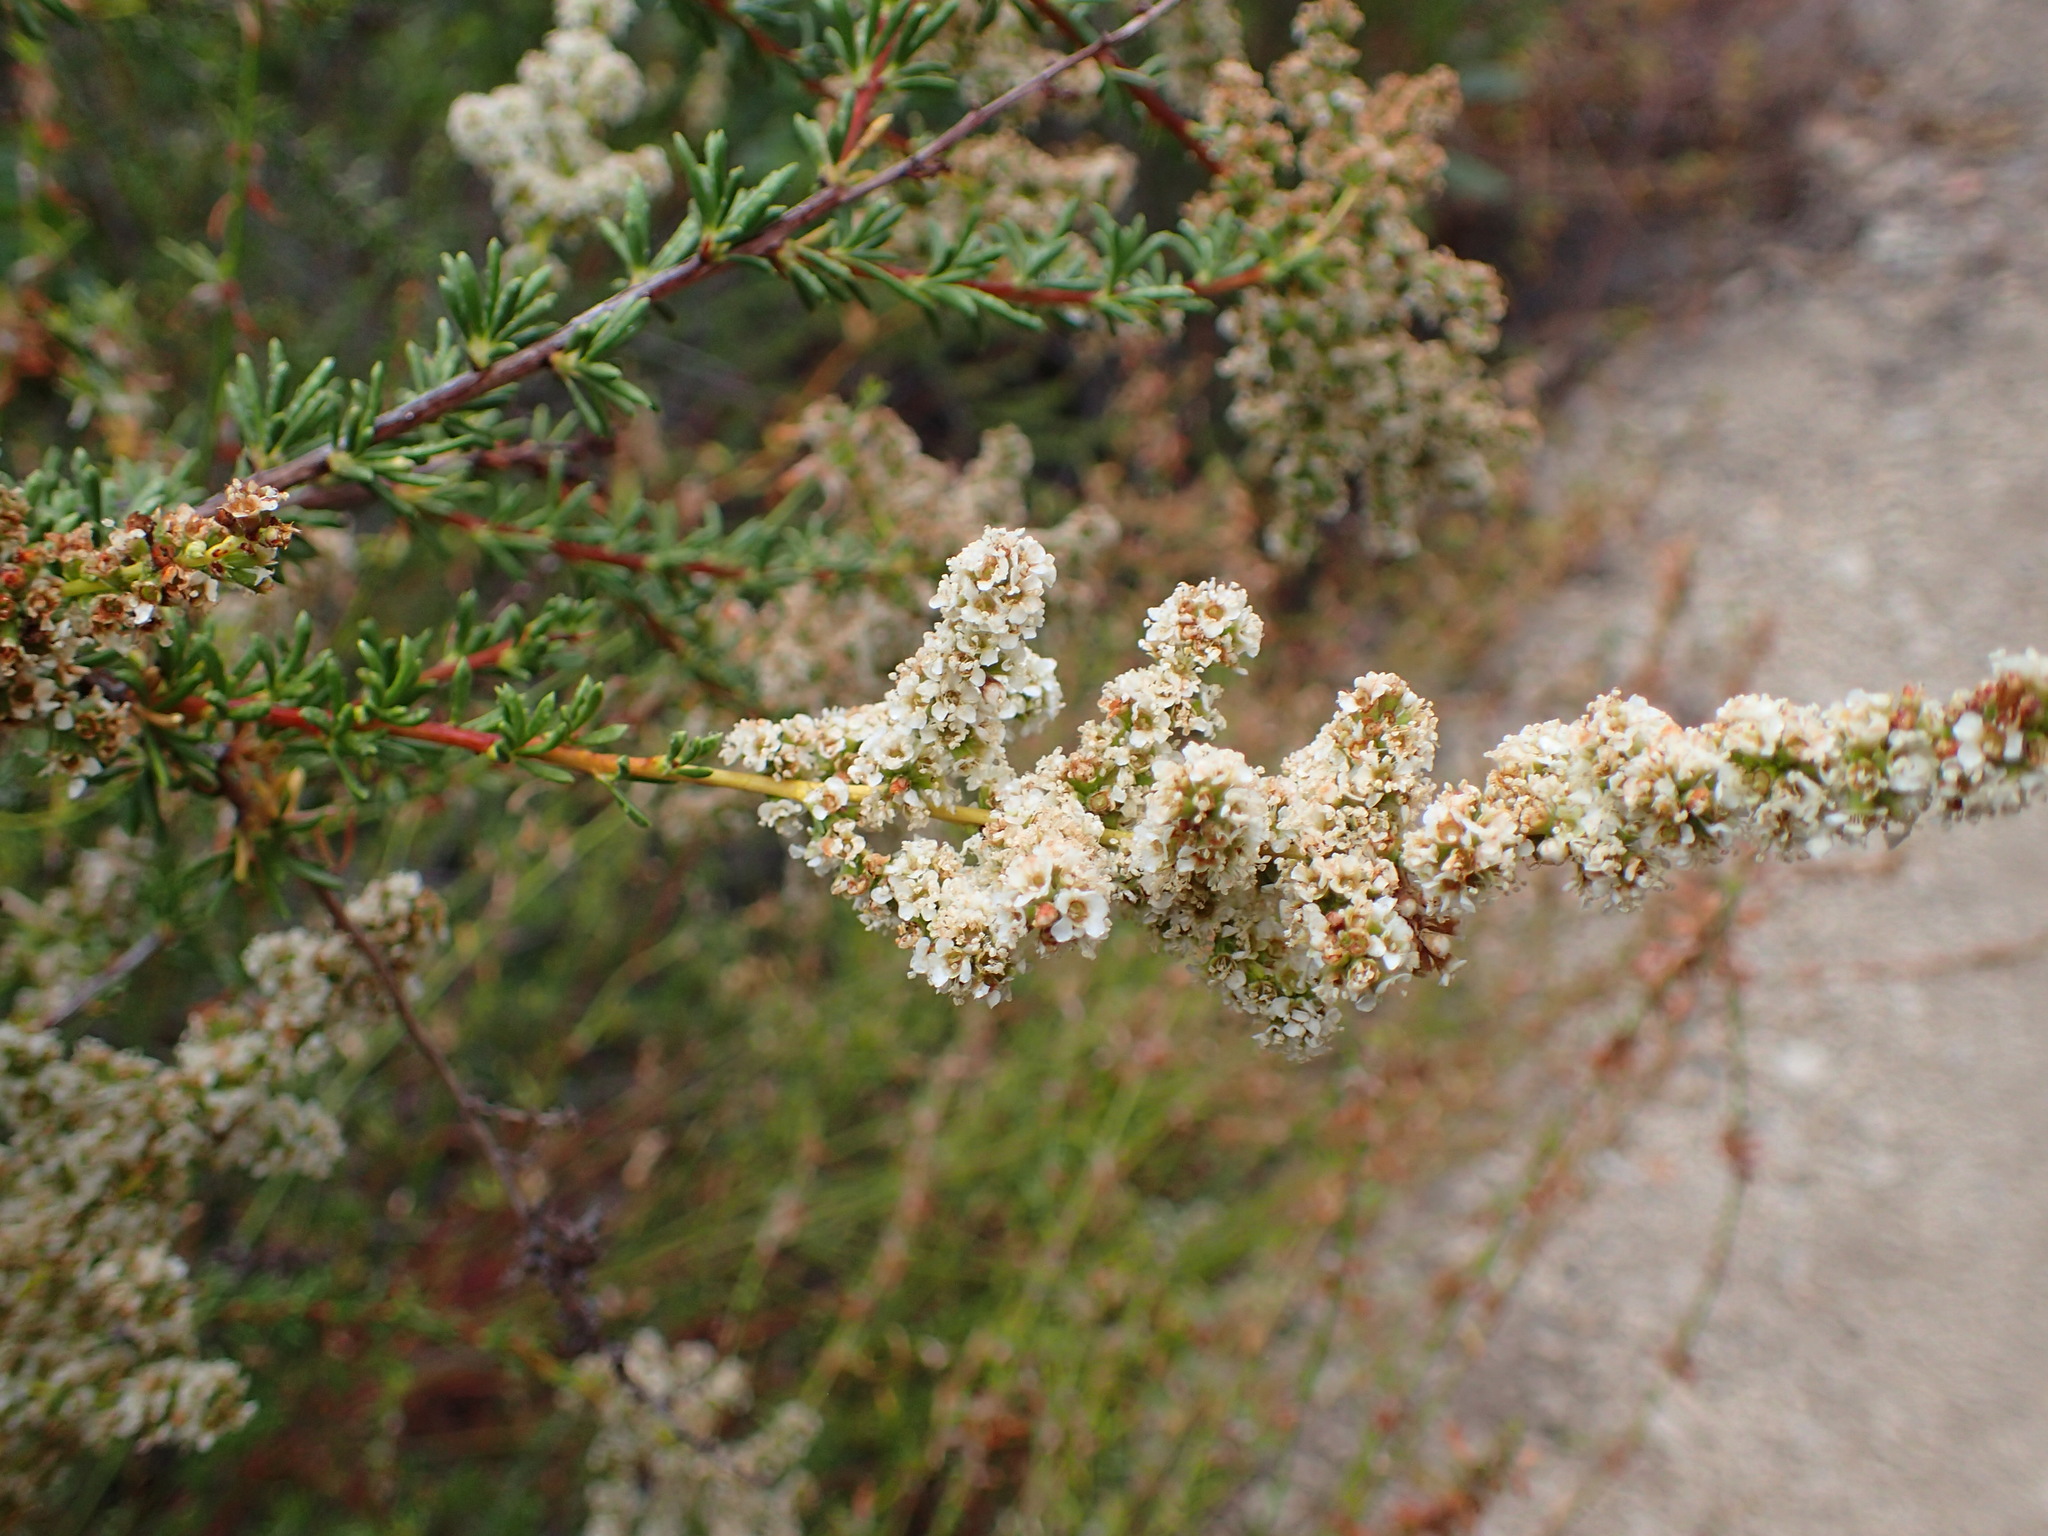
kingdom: Plantae
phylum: Tracheophyta
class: Magnoliopsida
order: Rosales
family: Rosaceae
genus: Adenostoma
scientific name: Adenostoma fasciculatum
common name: Chamise
